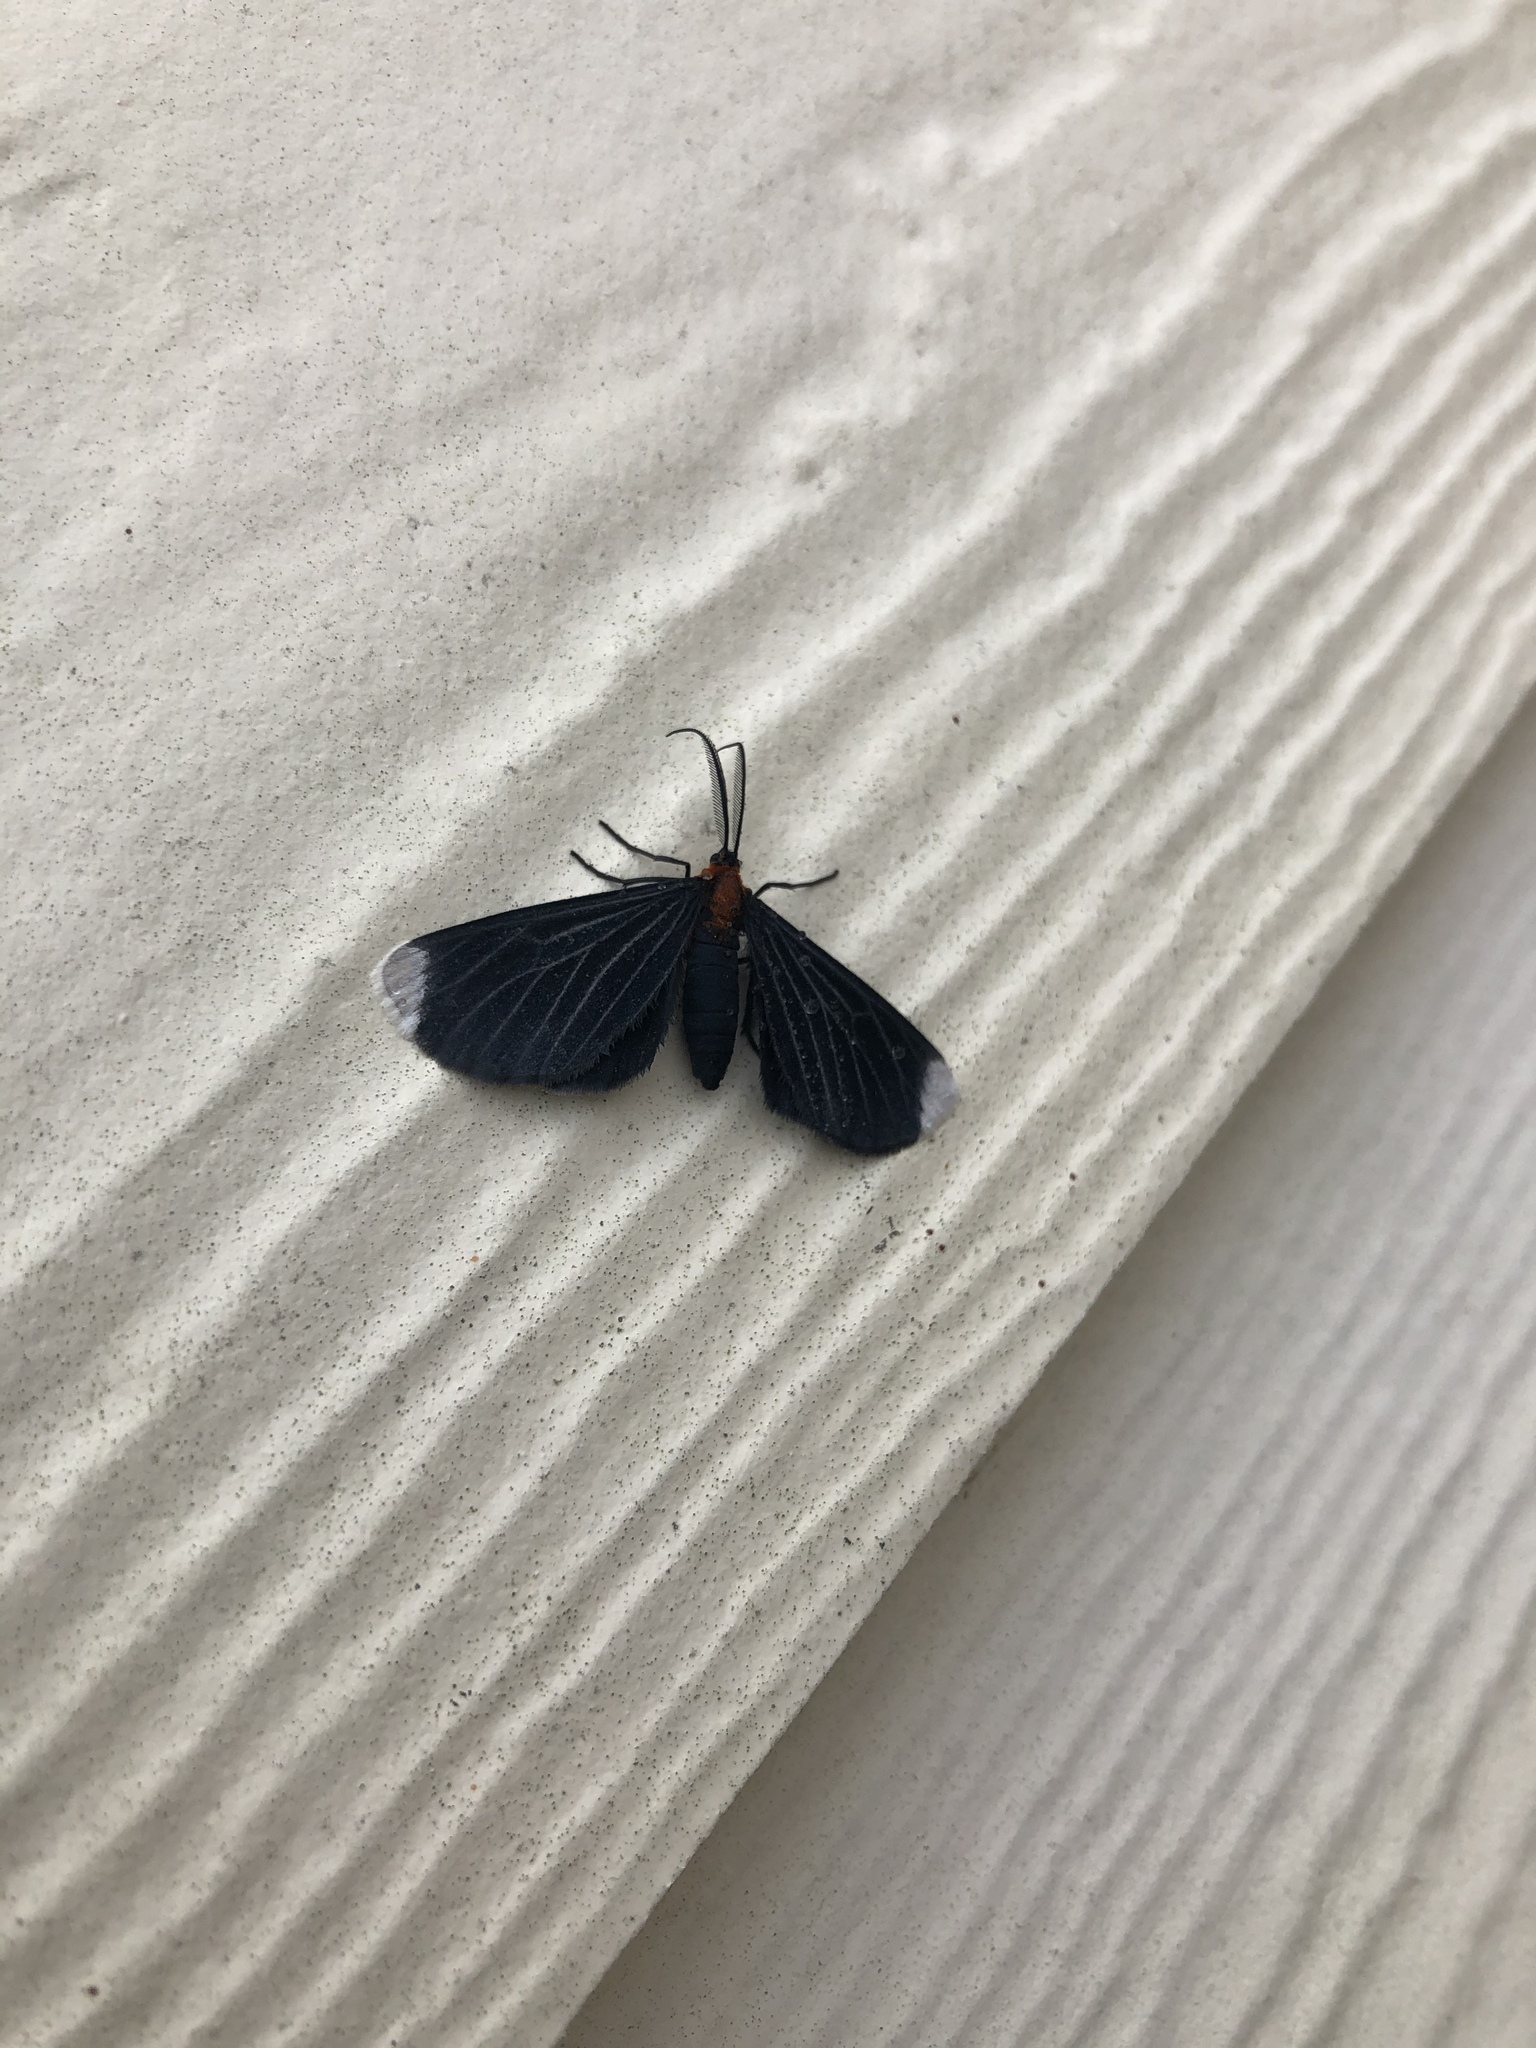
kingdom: Animalia
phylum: Arthropoda
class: Insecta
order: Lepidoptera
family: Geometridae
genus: Melanchroia
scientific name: Melanchroia chephise
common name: White-tipped black
